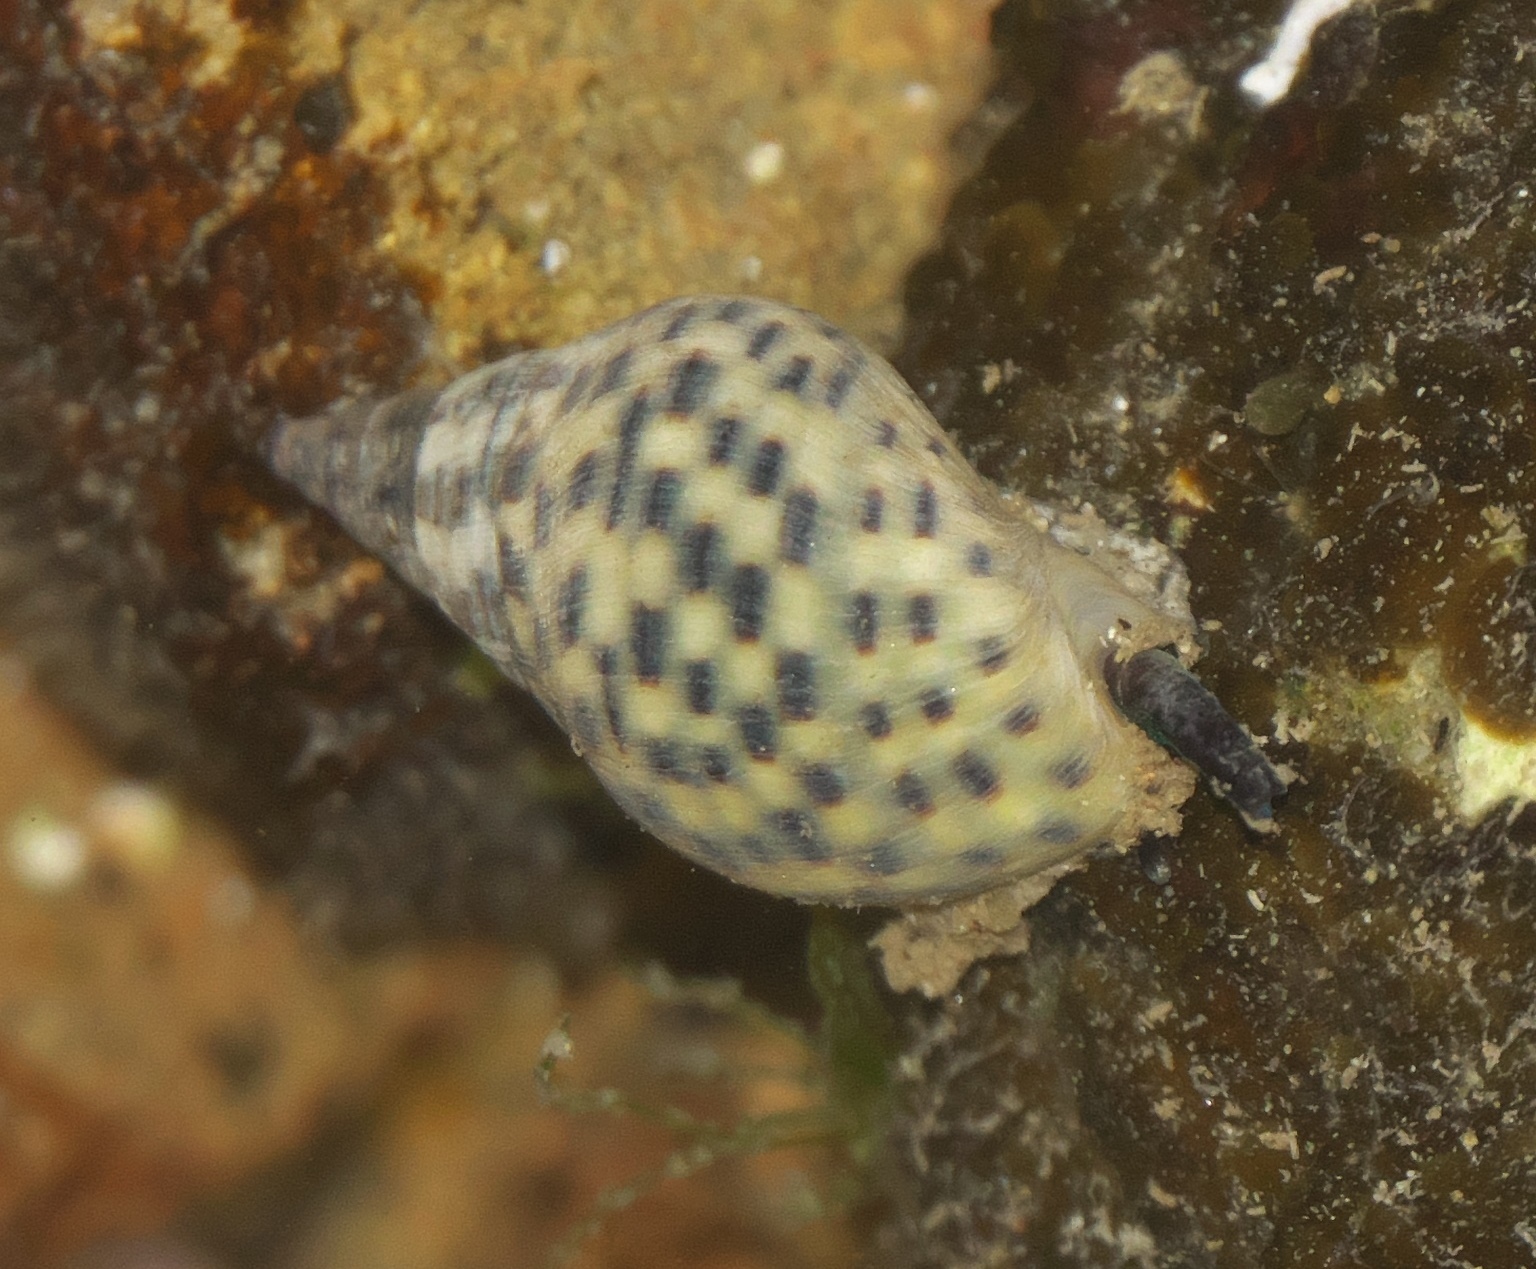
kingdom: Animalia
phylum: Mollusca
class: Gastropoda
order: Neogastropoda
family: Cominellidae
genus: Cominella
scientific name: Cominella maculosa
